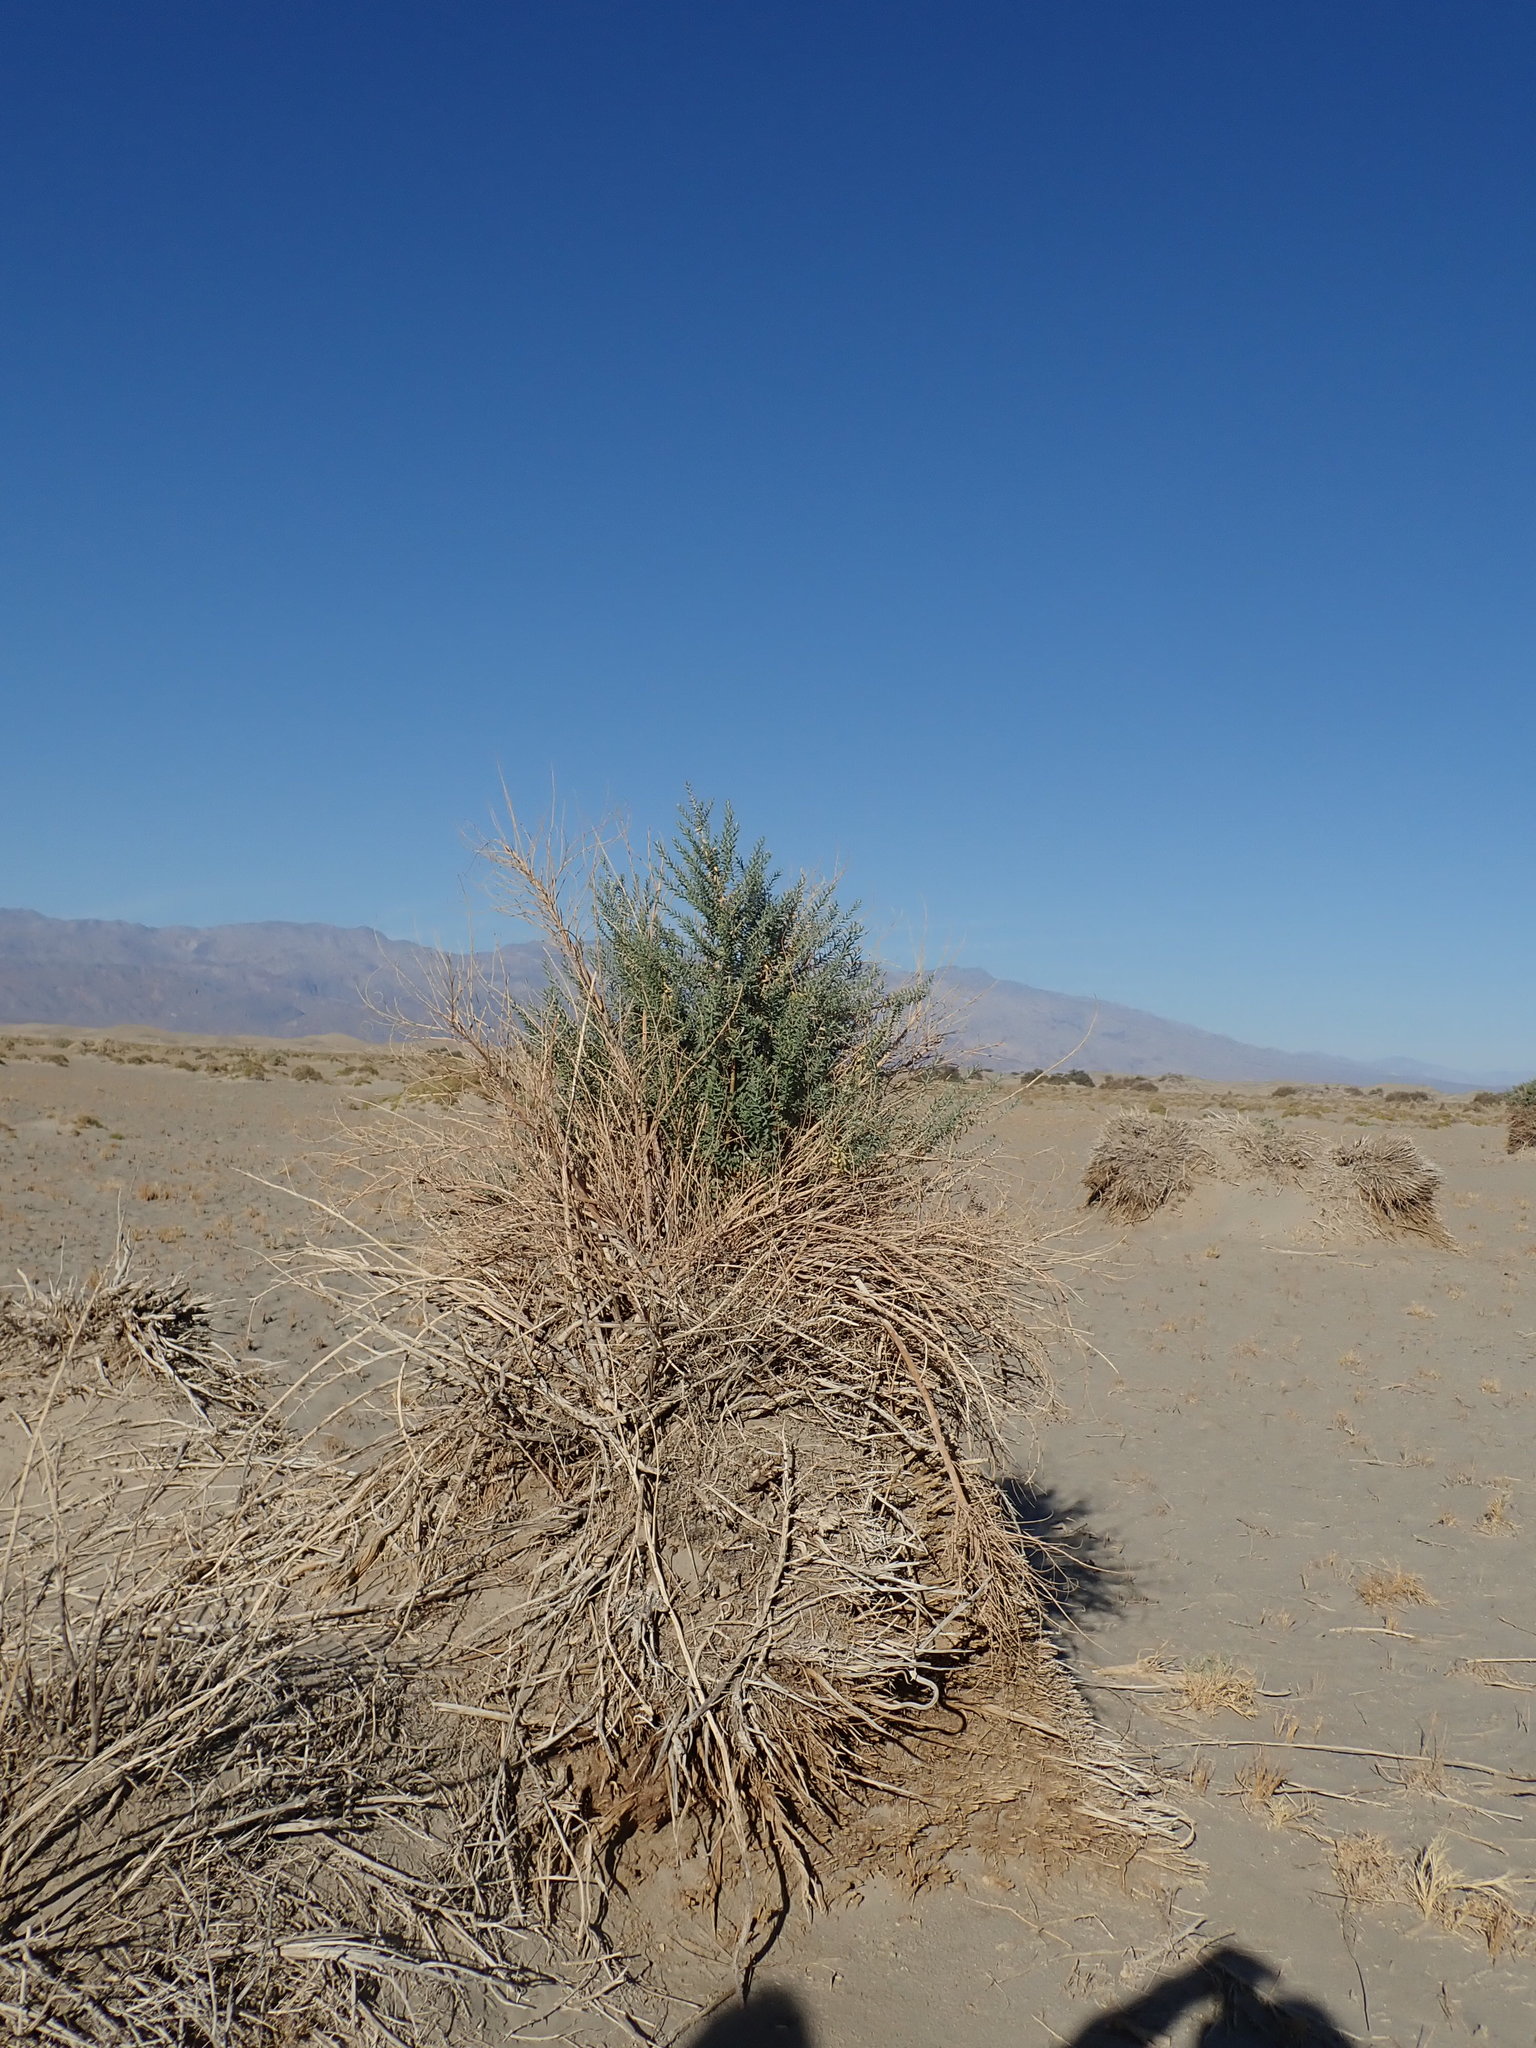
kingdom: Plantae
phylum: Tracheophyta
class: Magnoliopsida
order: Asterales
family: Asteraceae
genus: Pluchea
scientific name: Pluchea sericea
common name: Arrow-weed
